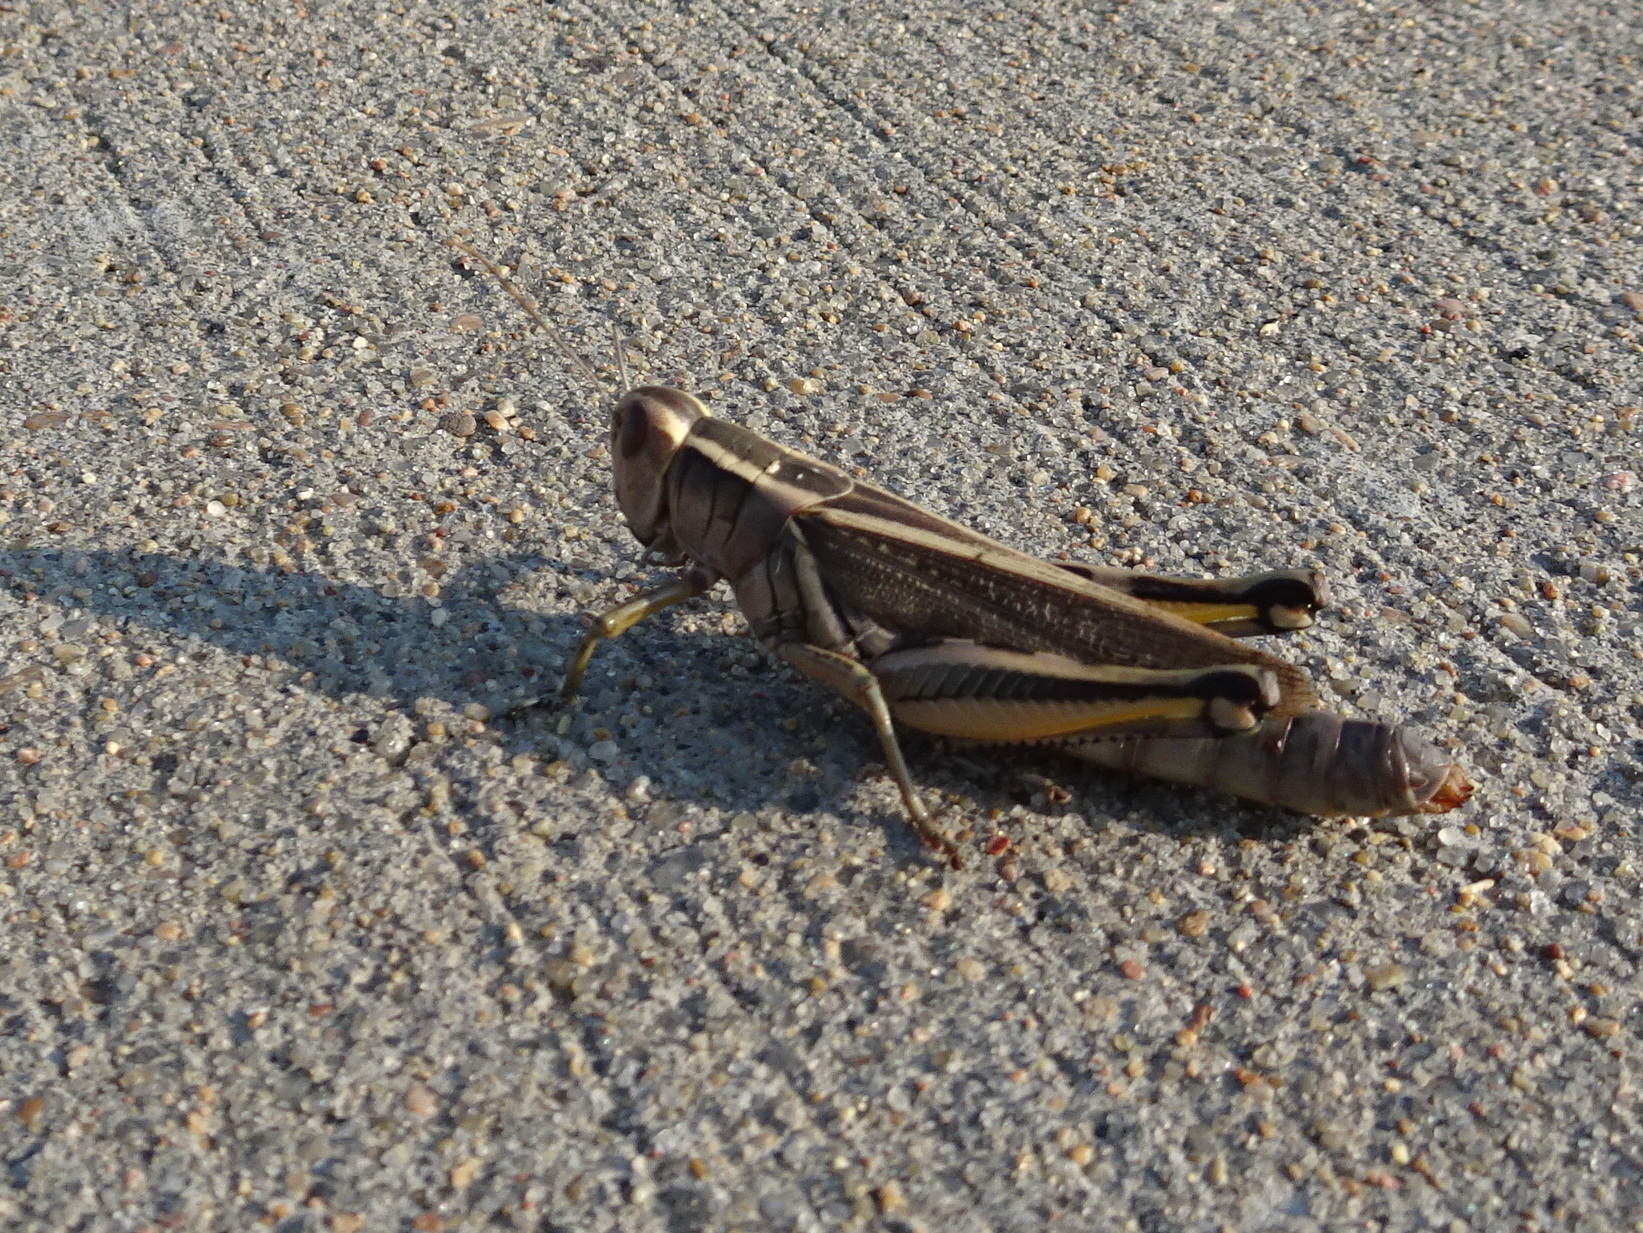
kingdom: Animalia
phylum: Arthropoda
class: Insecta
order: Orthoptera
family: Acrididae
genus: Melanoplus
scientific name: Melanoplus bivittatus
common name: Two-striped grasshopper
